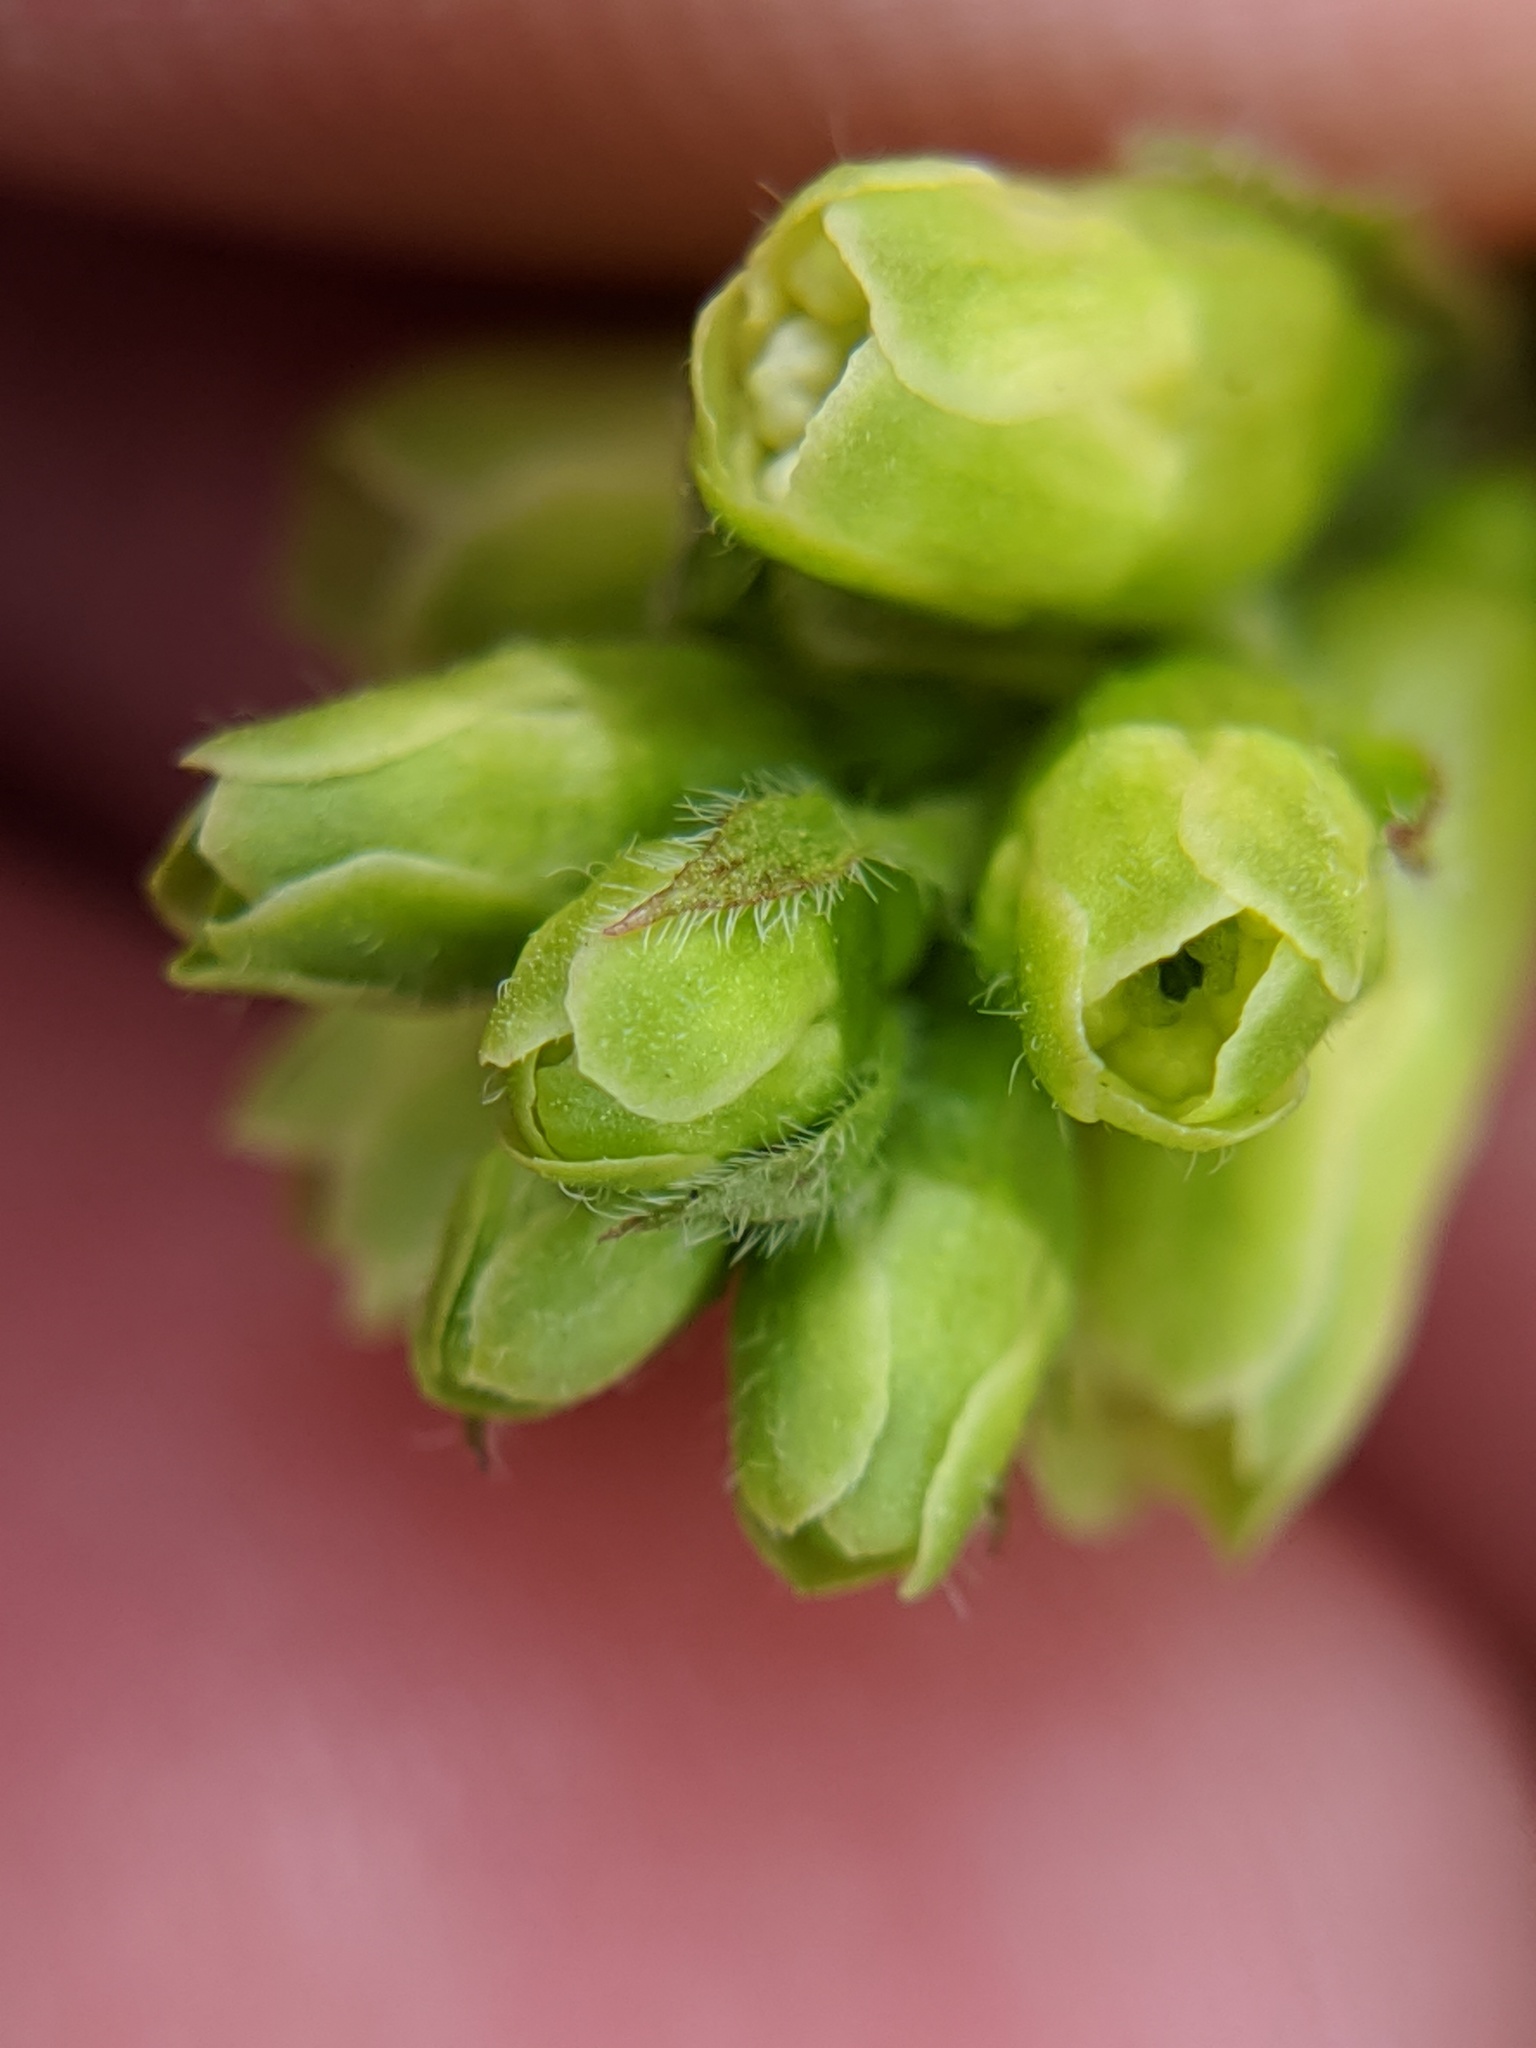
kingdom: Plantae
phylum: Tracheophyta
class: Magnoliopsida
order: Saxifragales
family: Grossulariaceae
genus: Ribes
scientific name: Ribes americanum
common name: American black currant
